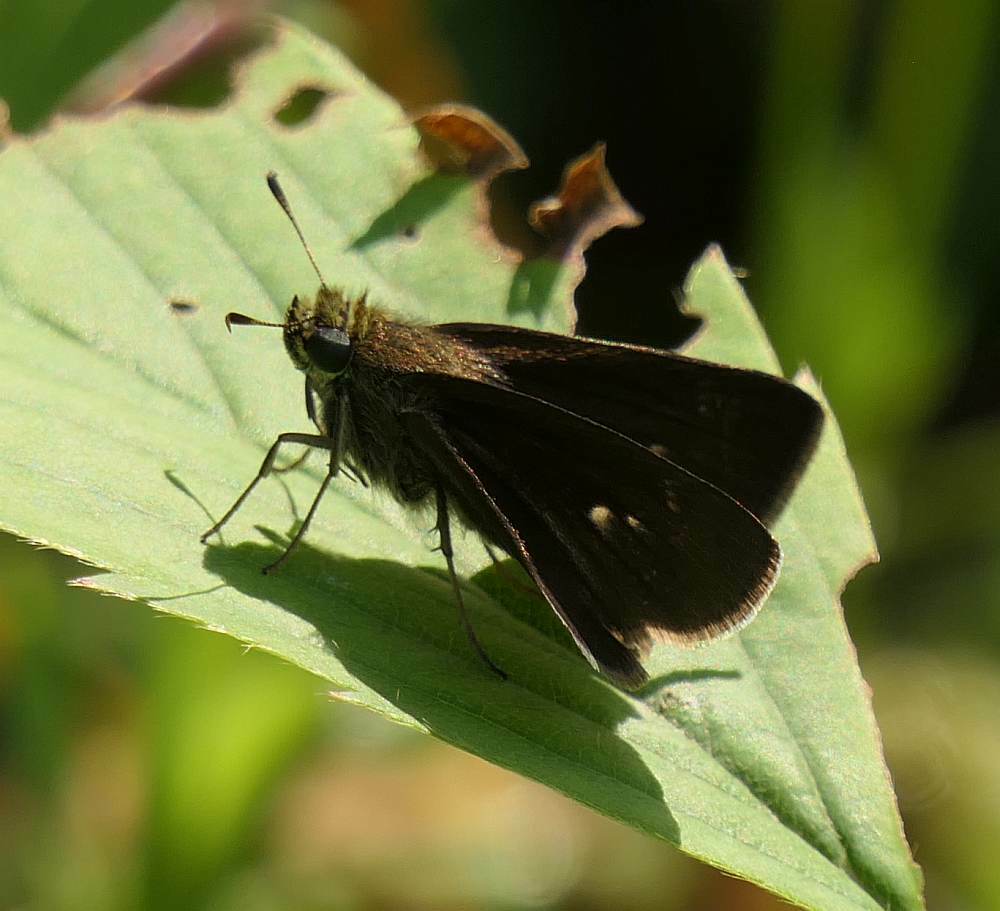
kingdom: Animalia
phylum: Arthropoda
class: Insecta
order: Lepidoptera
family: Hesperiidae
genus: Euphyes
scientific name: Euphyes vestris
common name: Dun skipper
